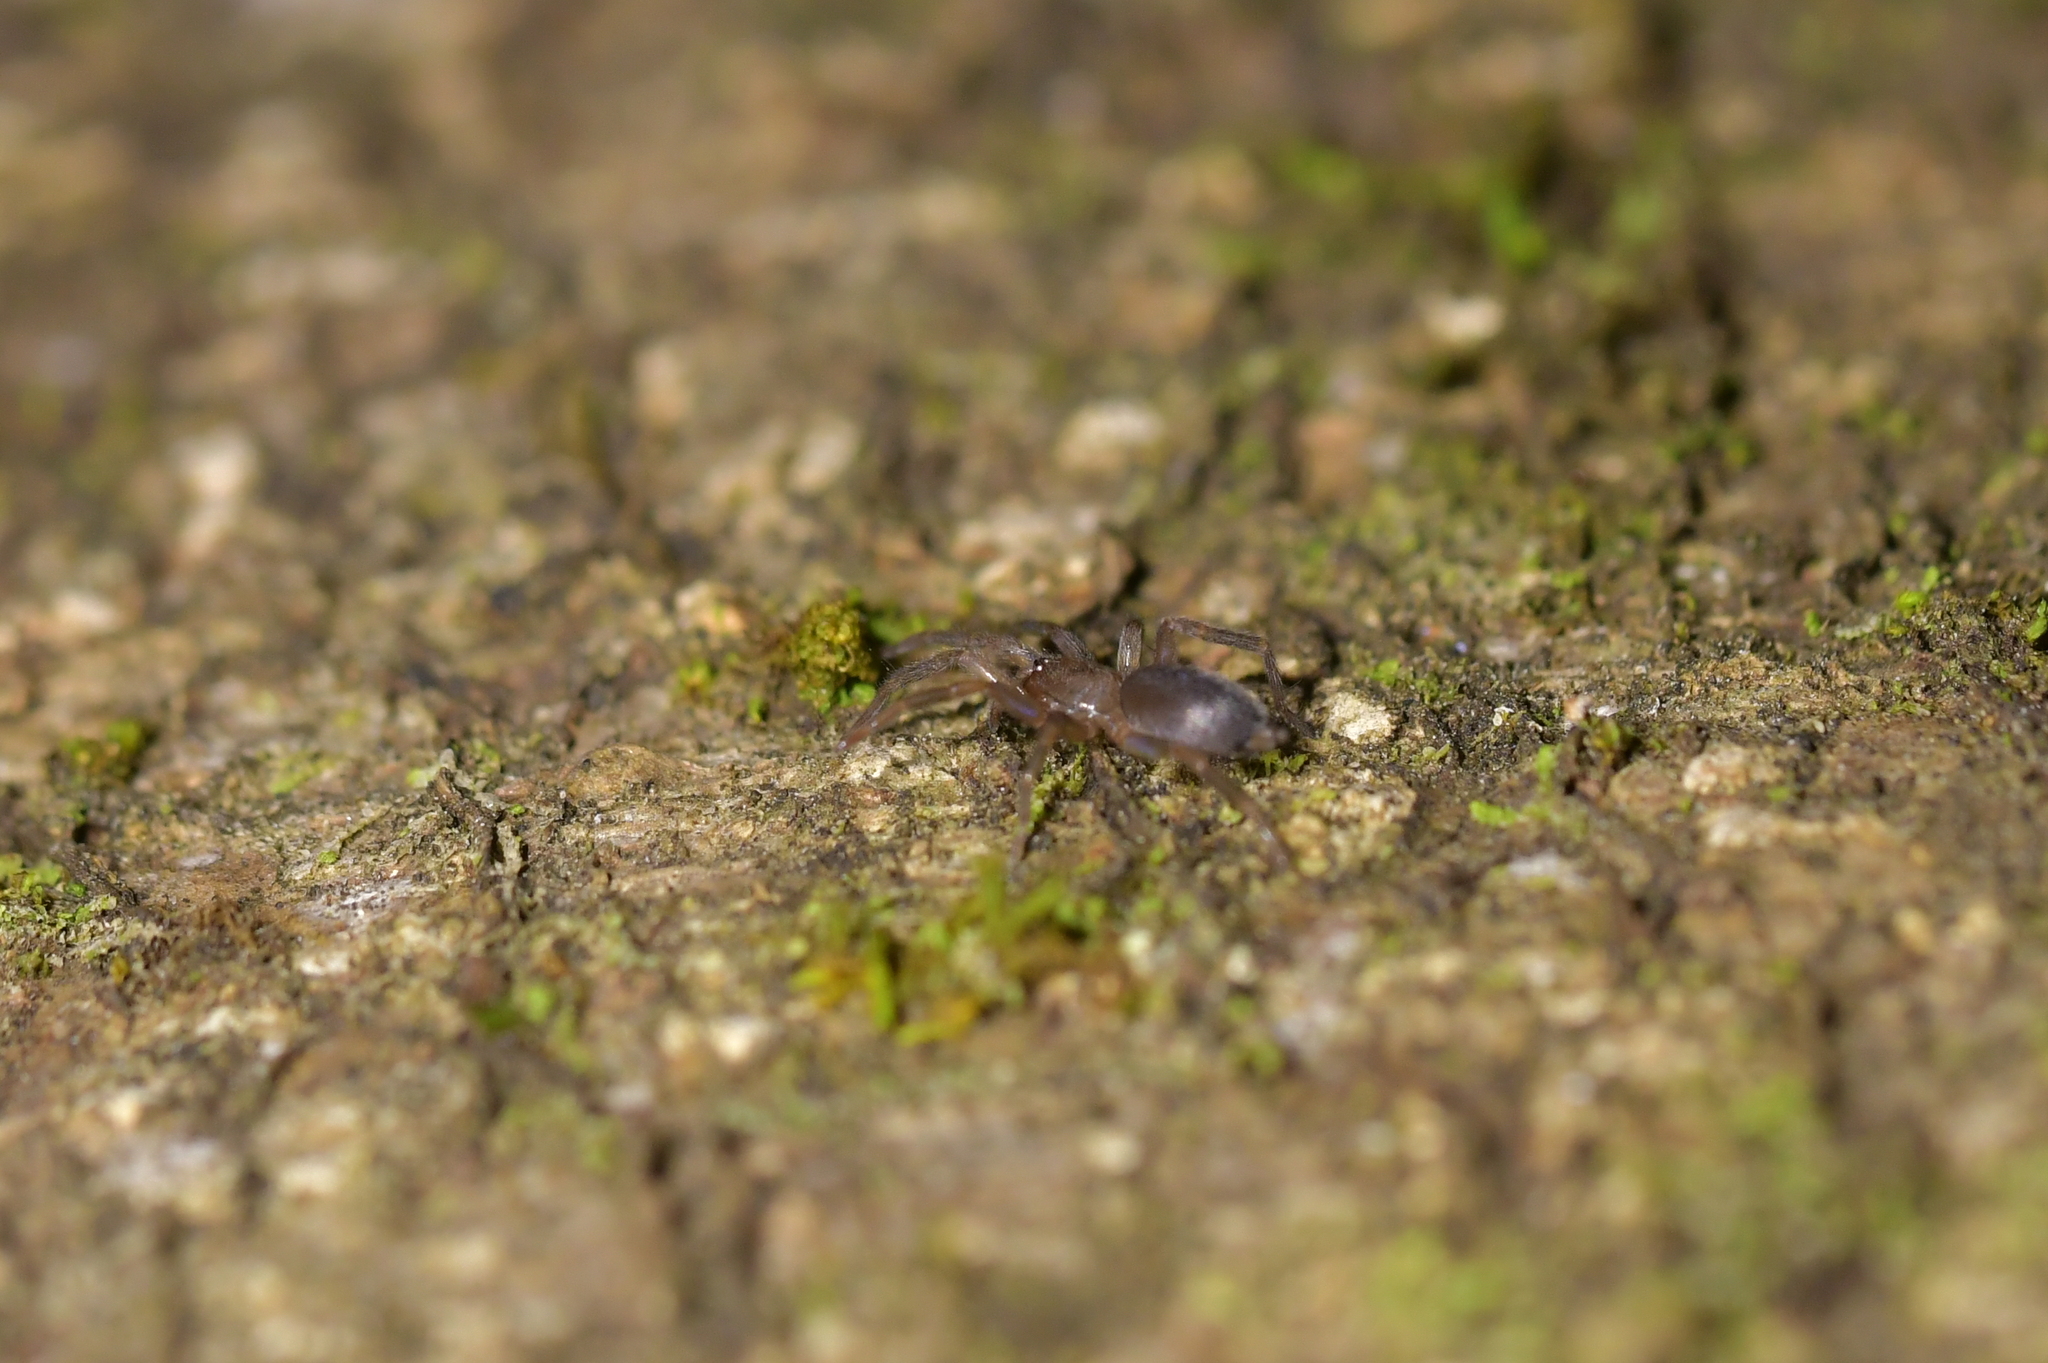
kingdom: Animalia
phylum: Arthropoda
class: Arachnida
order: Araneae
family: Gnaphosidae
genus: Hypodrassodes
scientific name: Hypodrassodes maoricus
